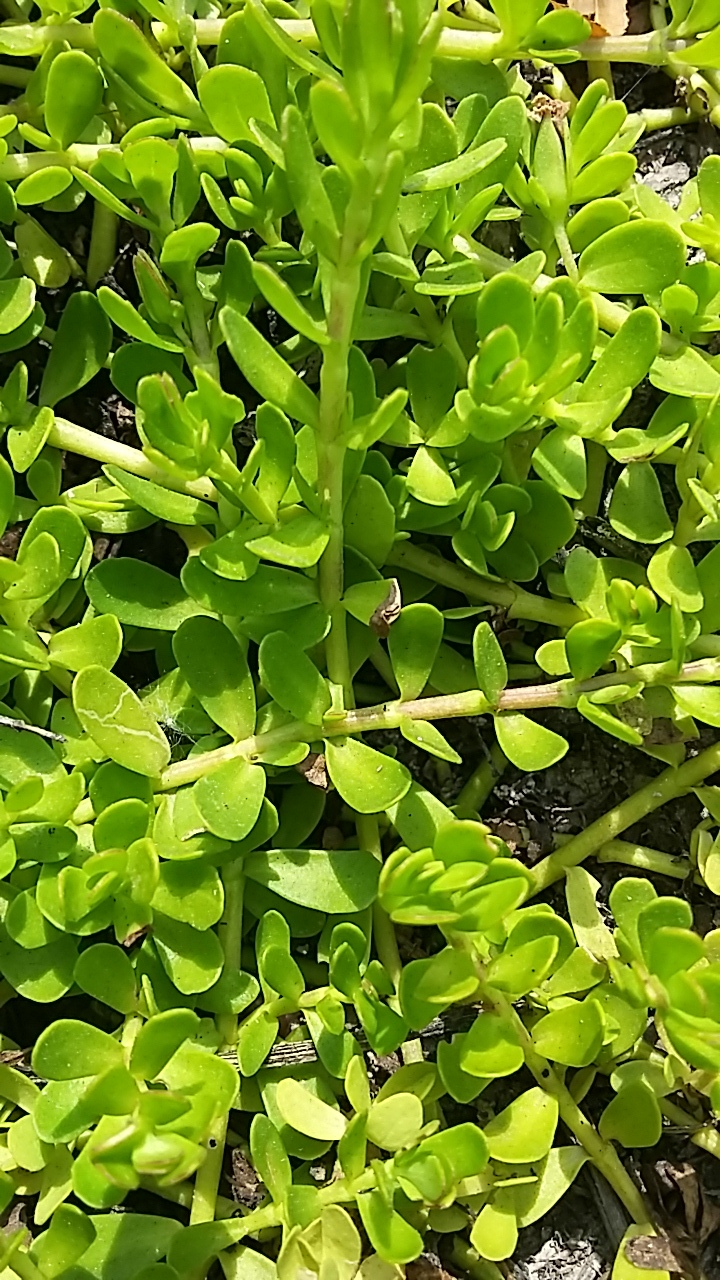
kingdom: Plantae
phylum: Tracheophyta
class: Magnoliopsida
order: Lamiales
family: Plantaginaceae
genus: Bacopa
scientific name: Bacopa monnieri
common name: Indian-pennywort
